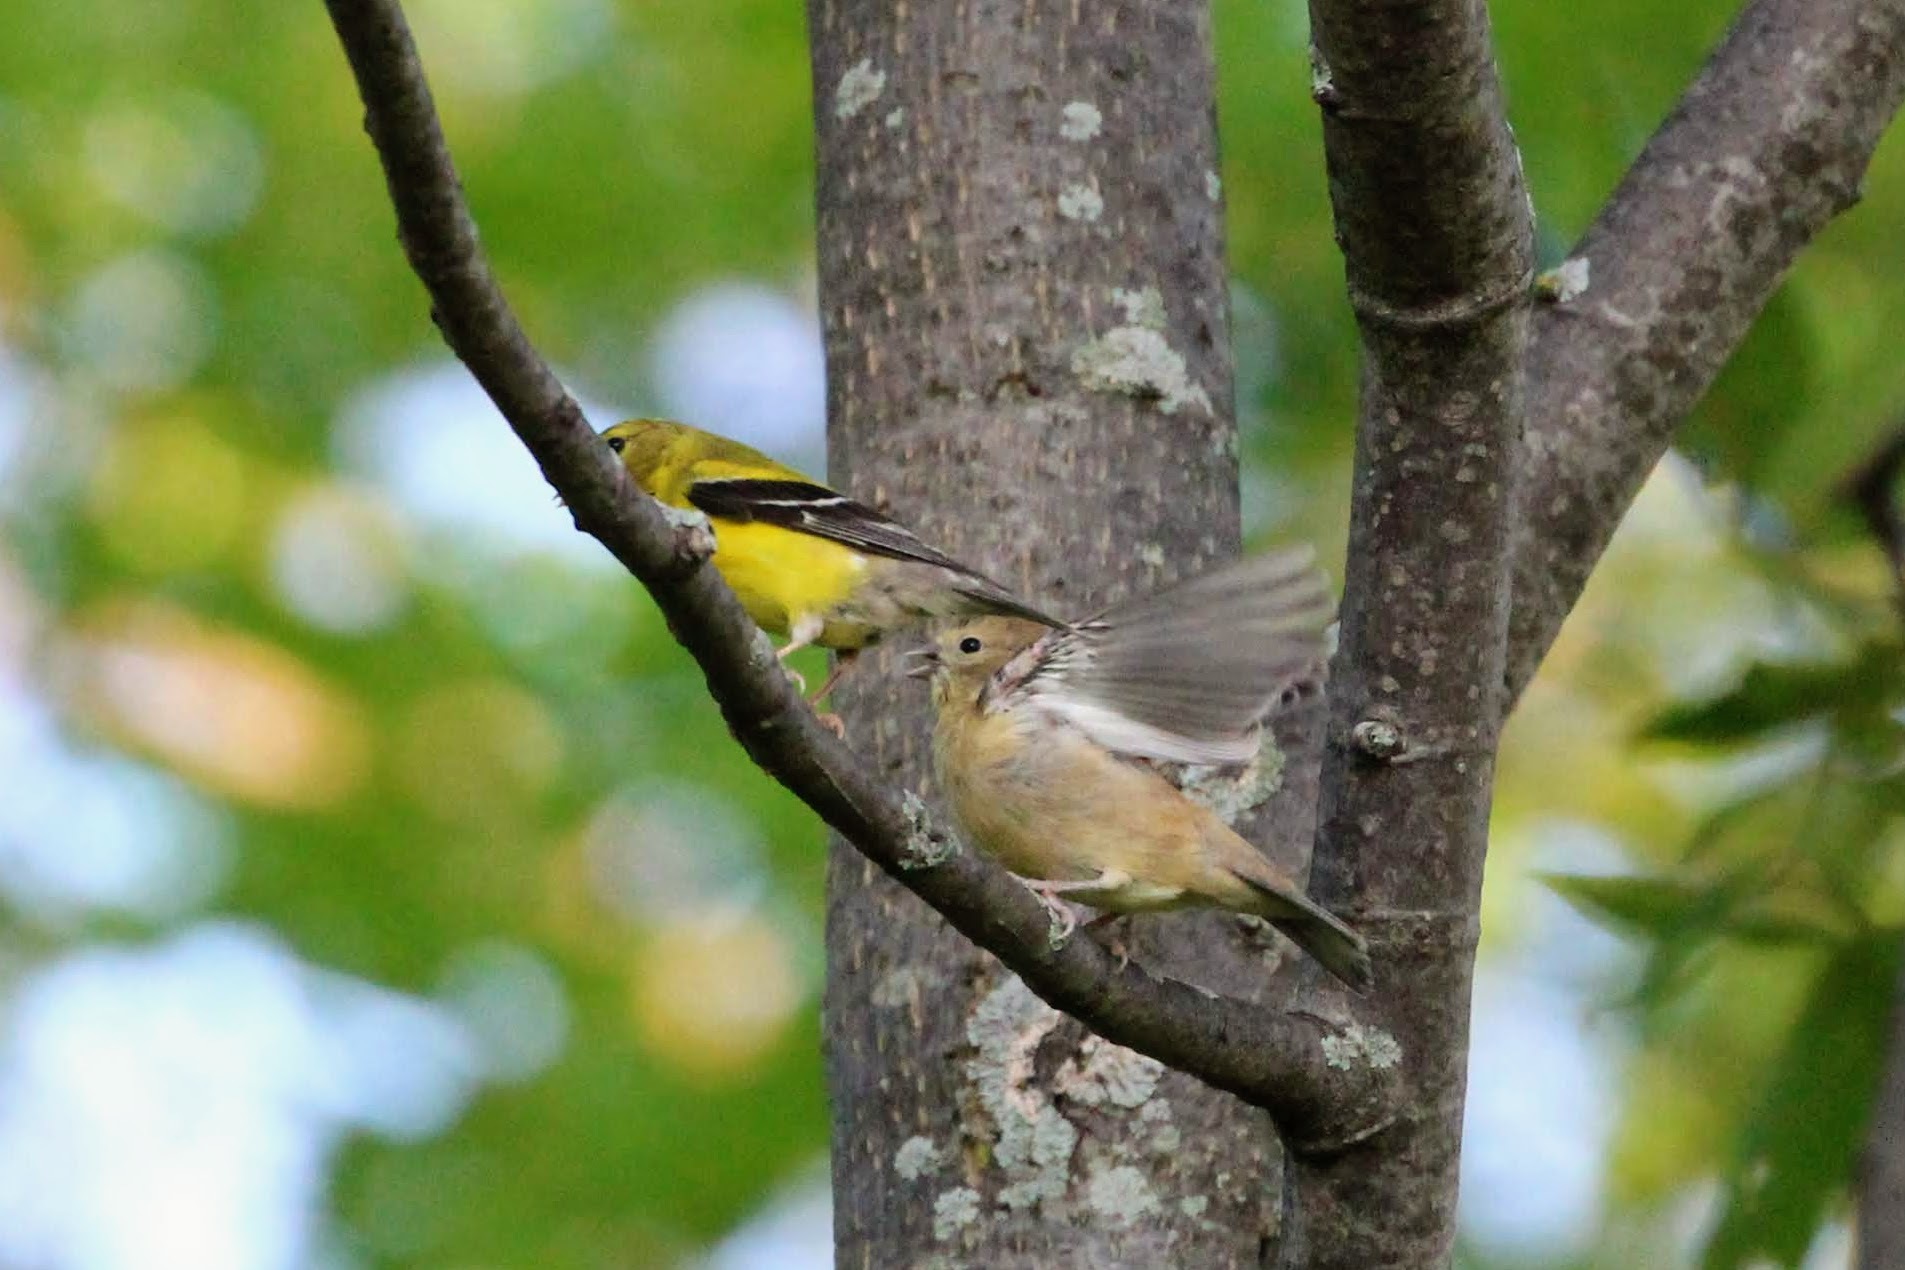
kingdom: Animalia
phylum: Chordata
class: Aves
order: Passeriformes
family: Fringillidae
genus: Spinus
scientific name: Spinus tristis
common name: American goldfinch
